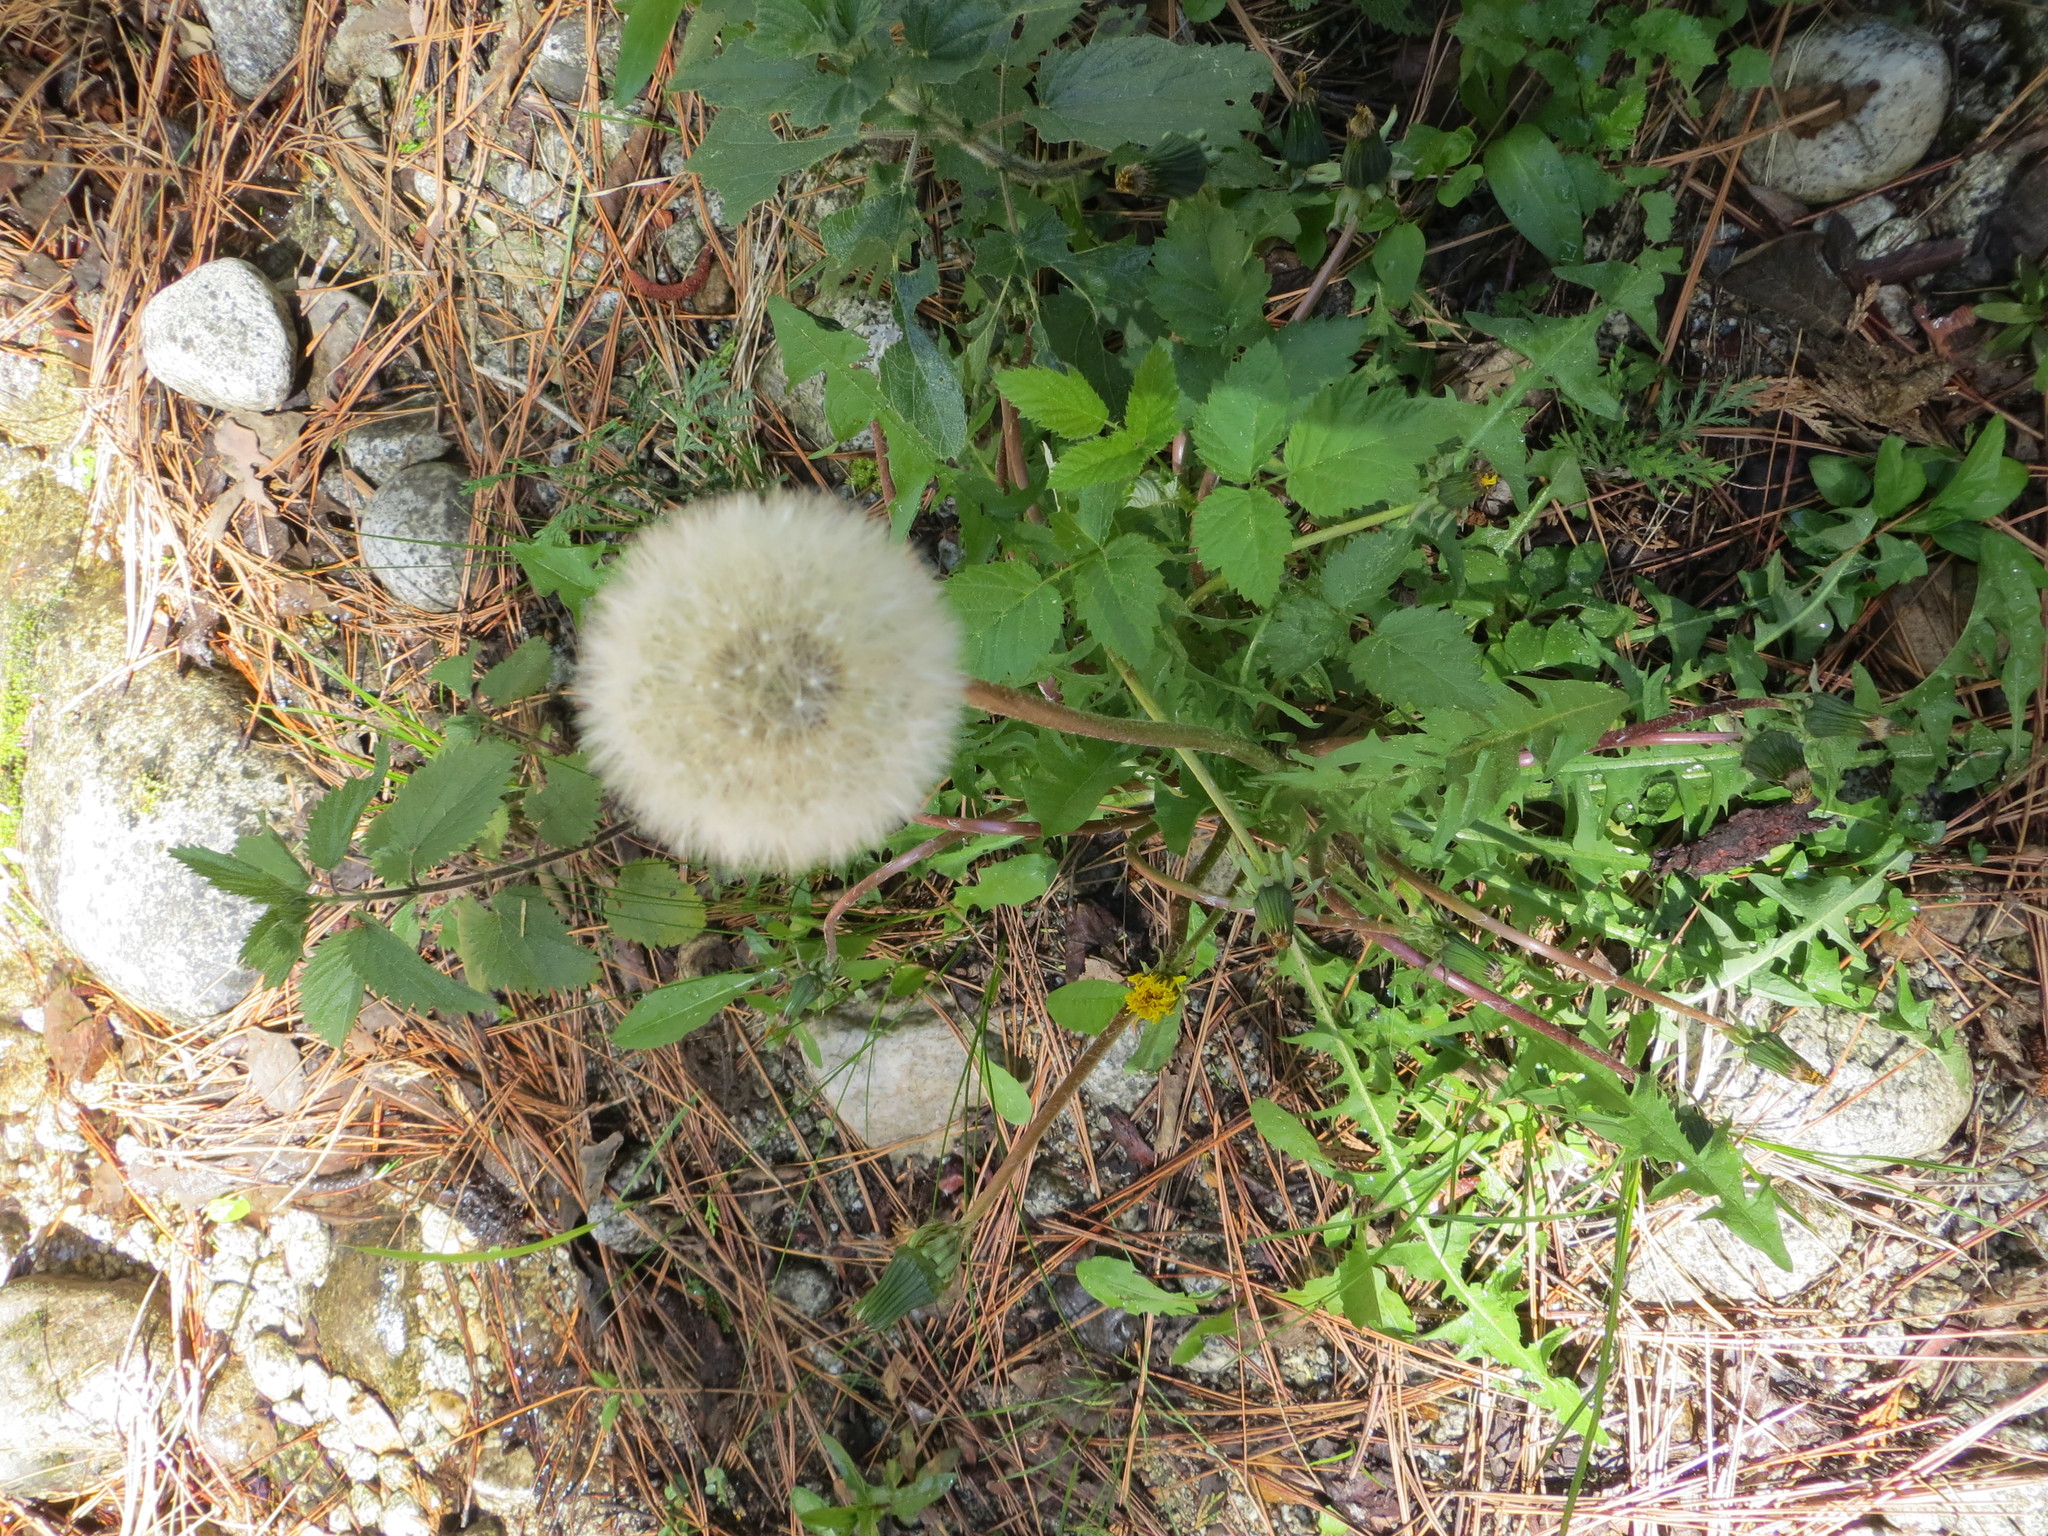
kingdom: Plantae
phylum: Tracheophyta
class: Magnoliopsida
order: Asterales
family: Asteraceae
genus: Taraxacum
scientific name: Taraxacum officinale
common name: Common dandelion
